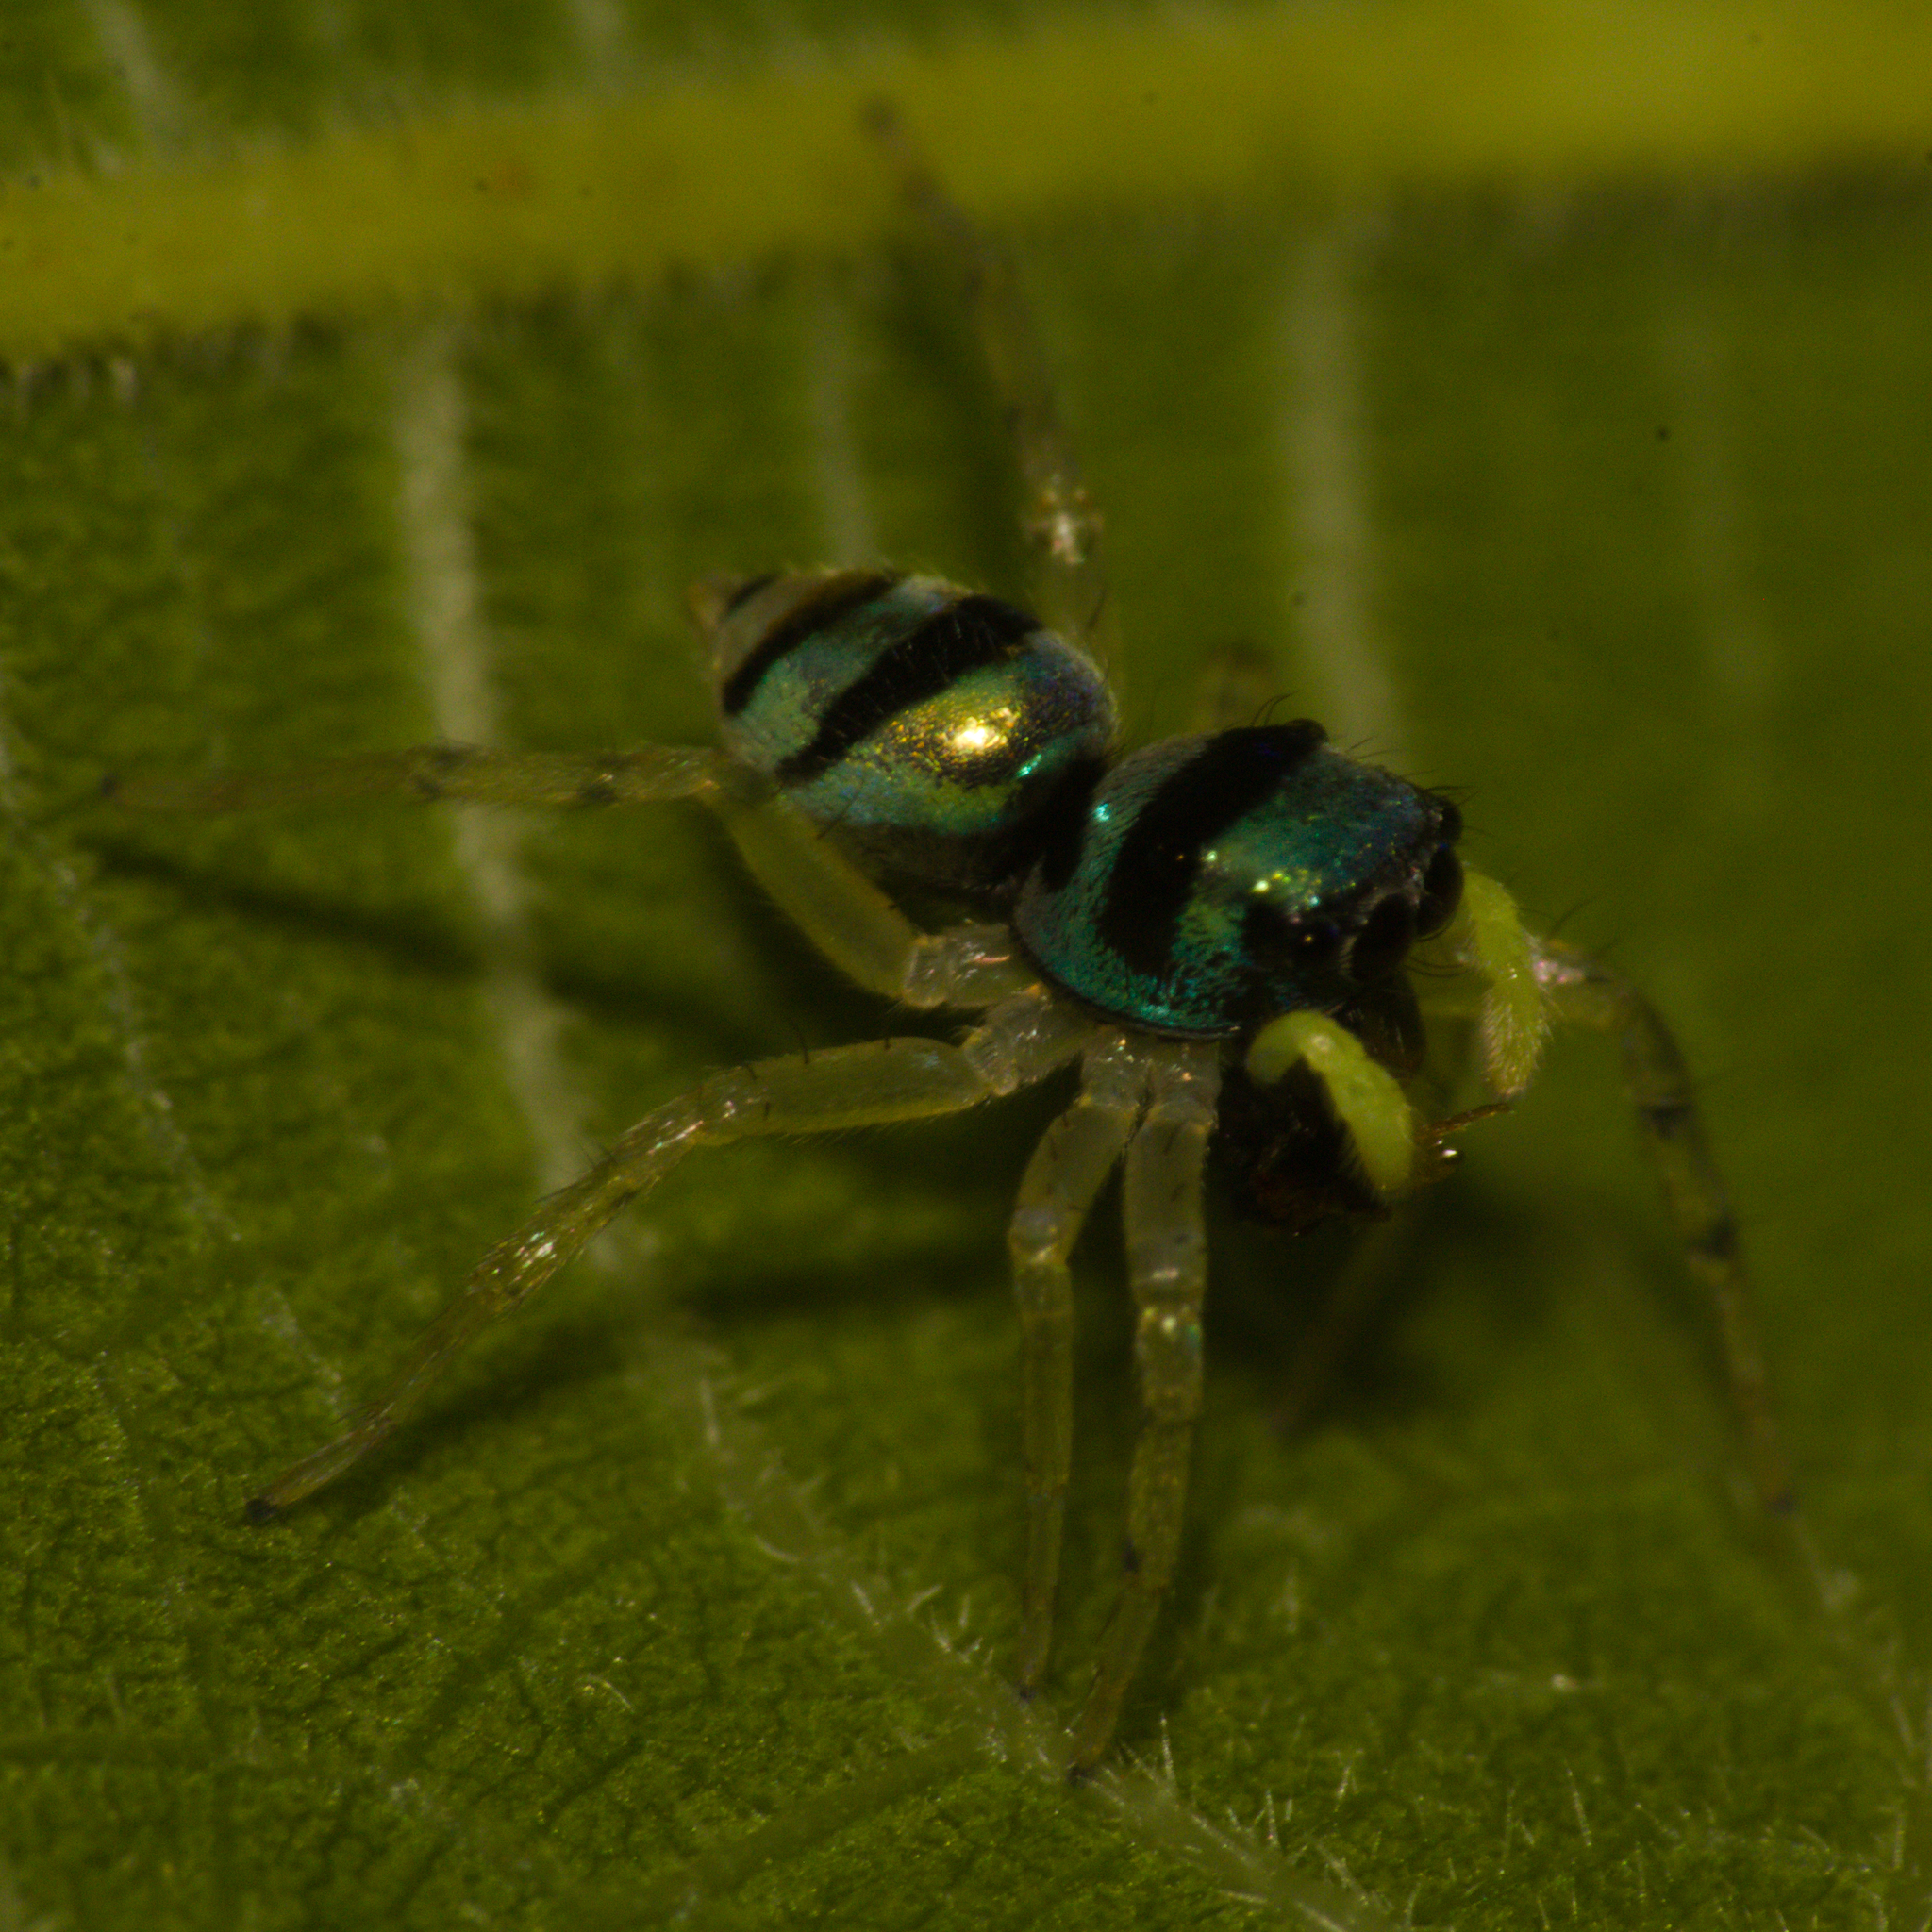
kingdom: Animalia
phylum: Arthropoda
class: Arachnida
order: Araneae
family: Salticidae
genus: Phintella
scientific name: Phintella vittata
